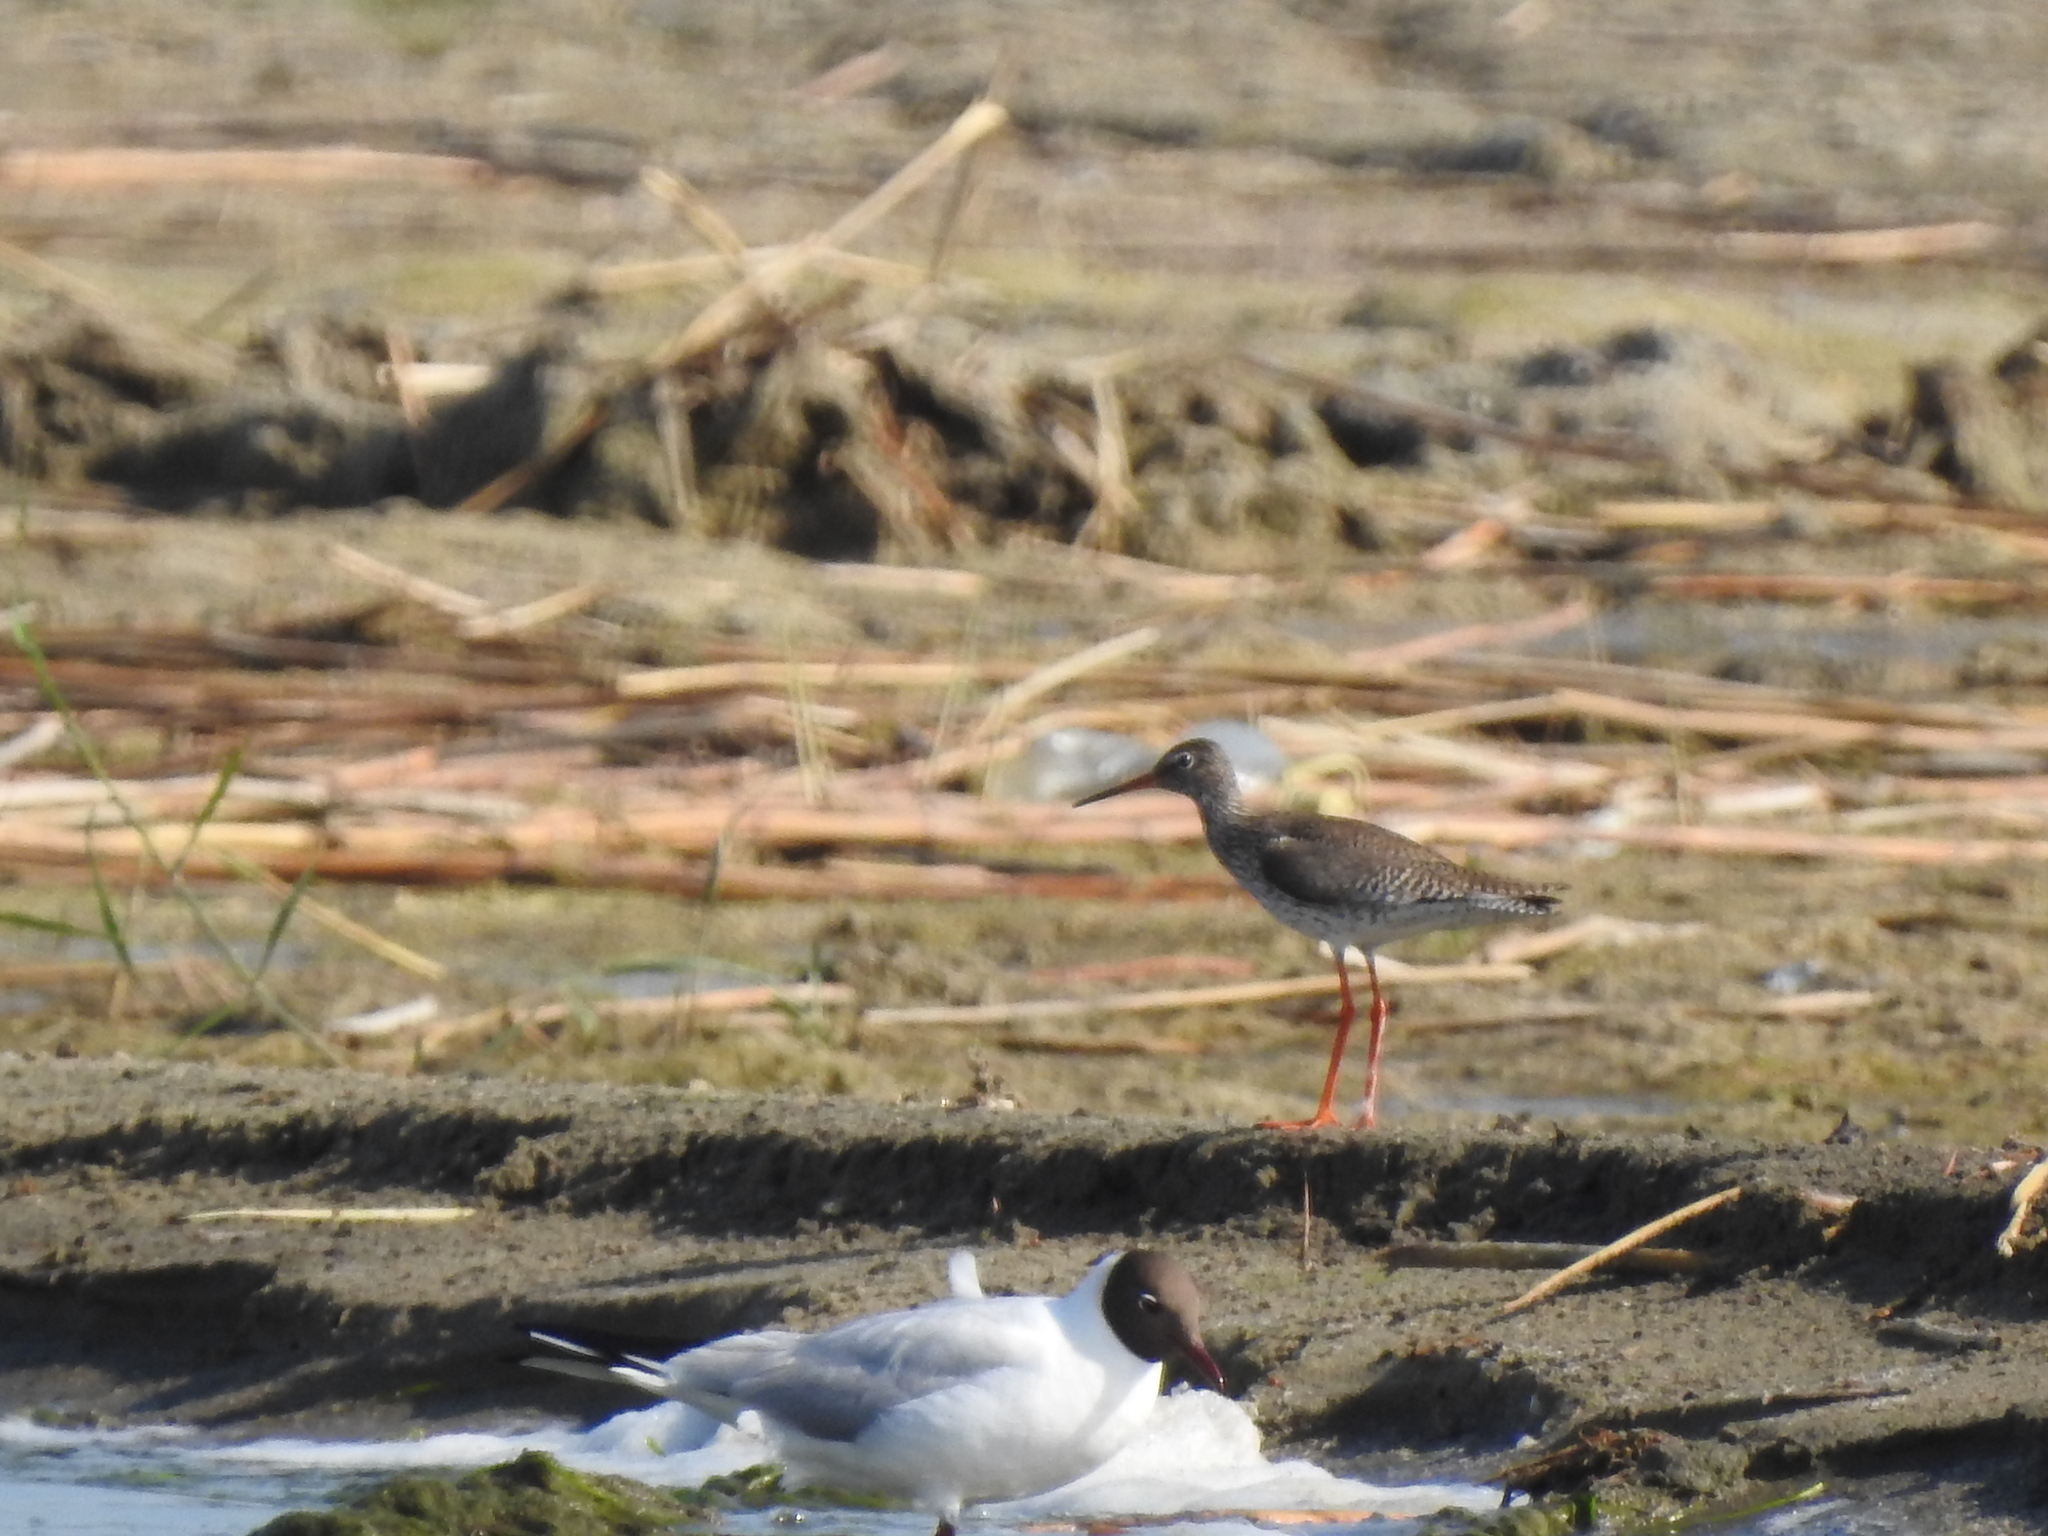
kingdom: Animalia
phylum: Chordata
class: Aves
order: Charadriiformes
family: Scolopacidae
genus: Tringa
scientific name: Tringa totanus
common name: Common redshank
